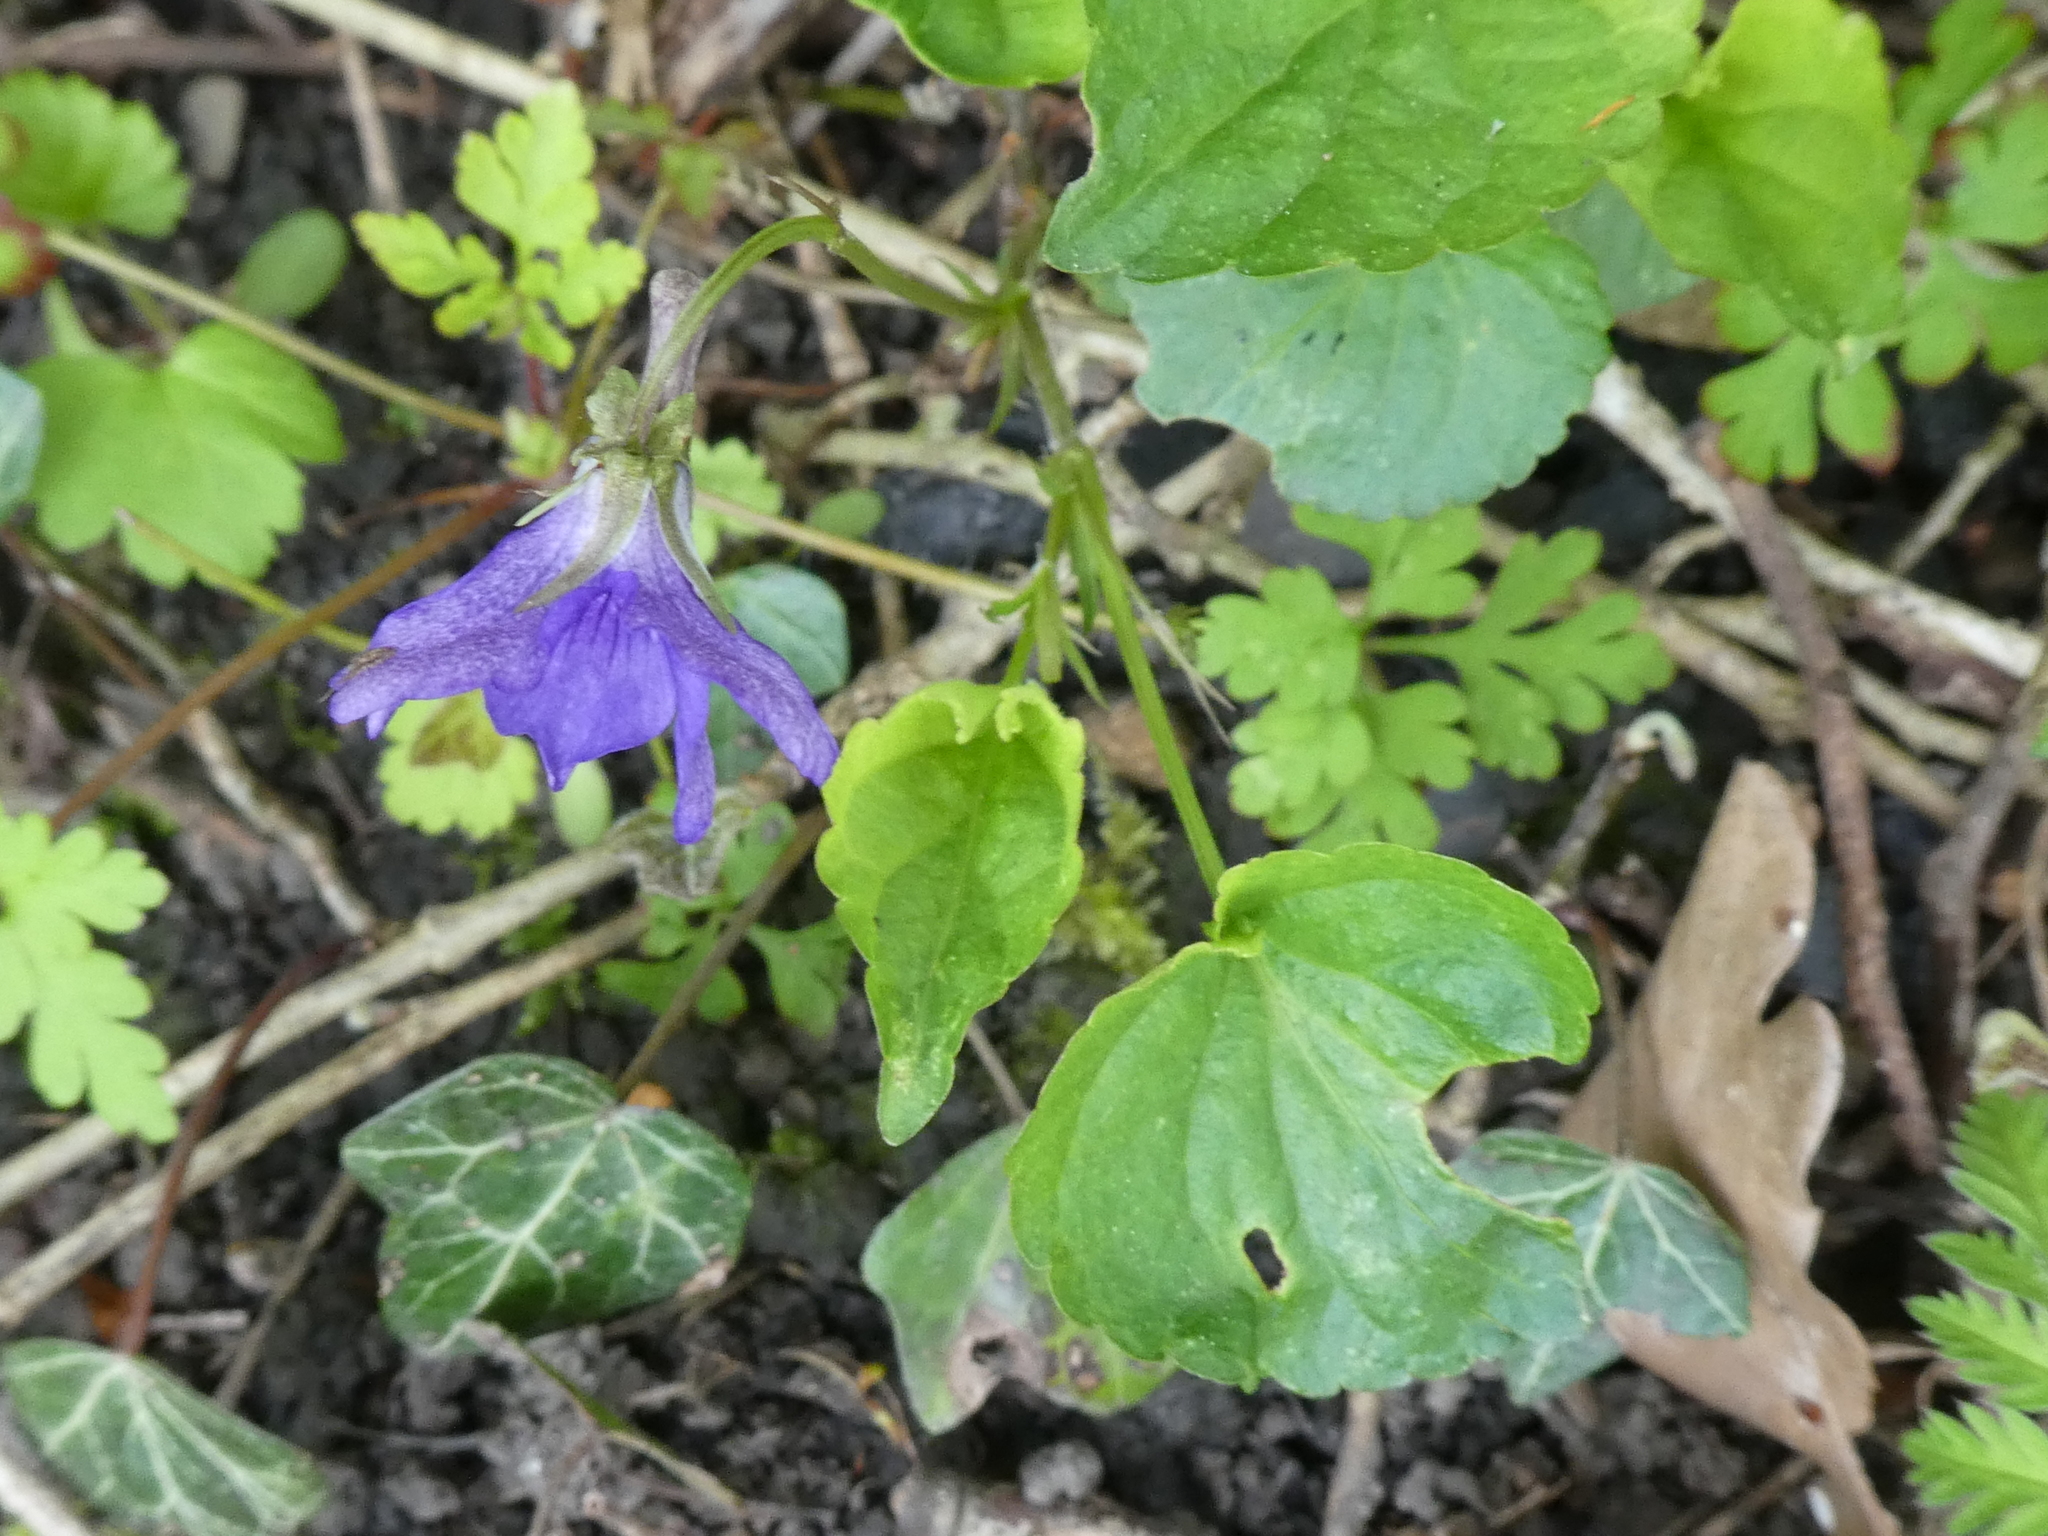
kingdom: Plantae
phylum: Tracheophyta
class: Magnoliopsida
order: Malpighiales
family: Violaceae
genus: Viola
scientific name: Viola riviniana
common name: Common dog-violet
